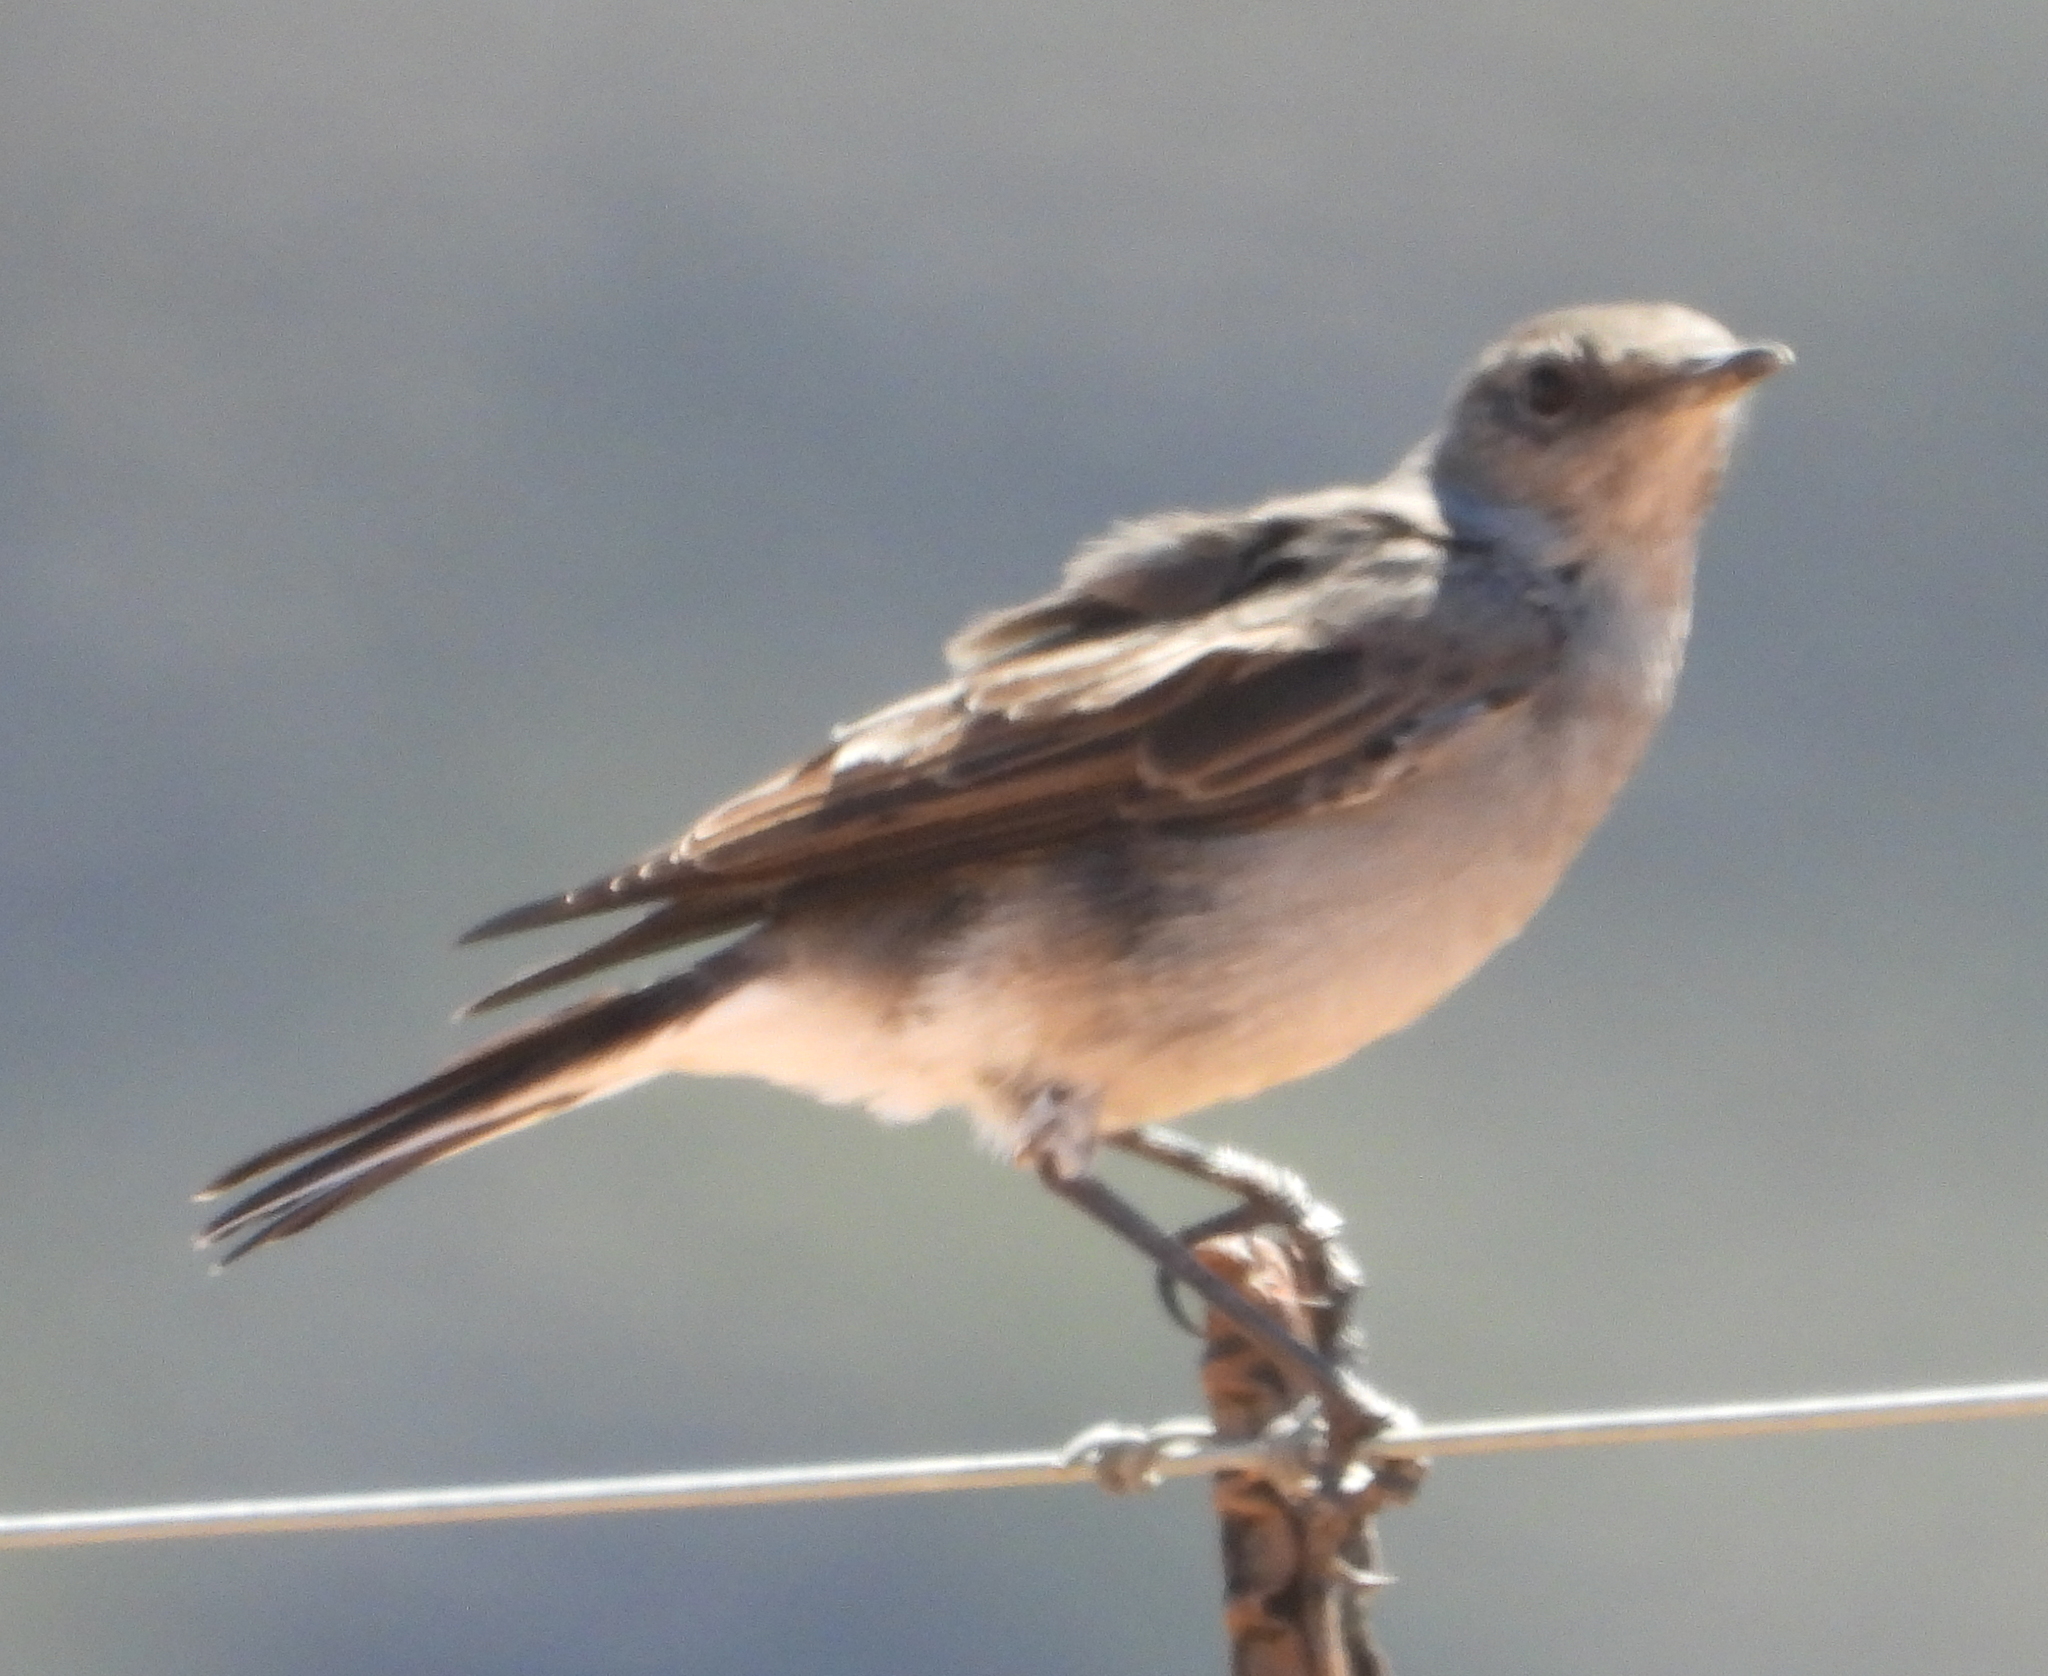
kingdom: Animalia
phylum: Chordata
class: Aves
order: Passeriformes
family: Muscicapidae
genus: Emarginata
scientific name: Emarginata schlegelii
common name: Karoo chat
